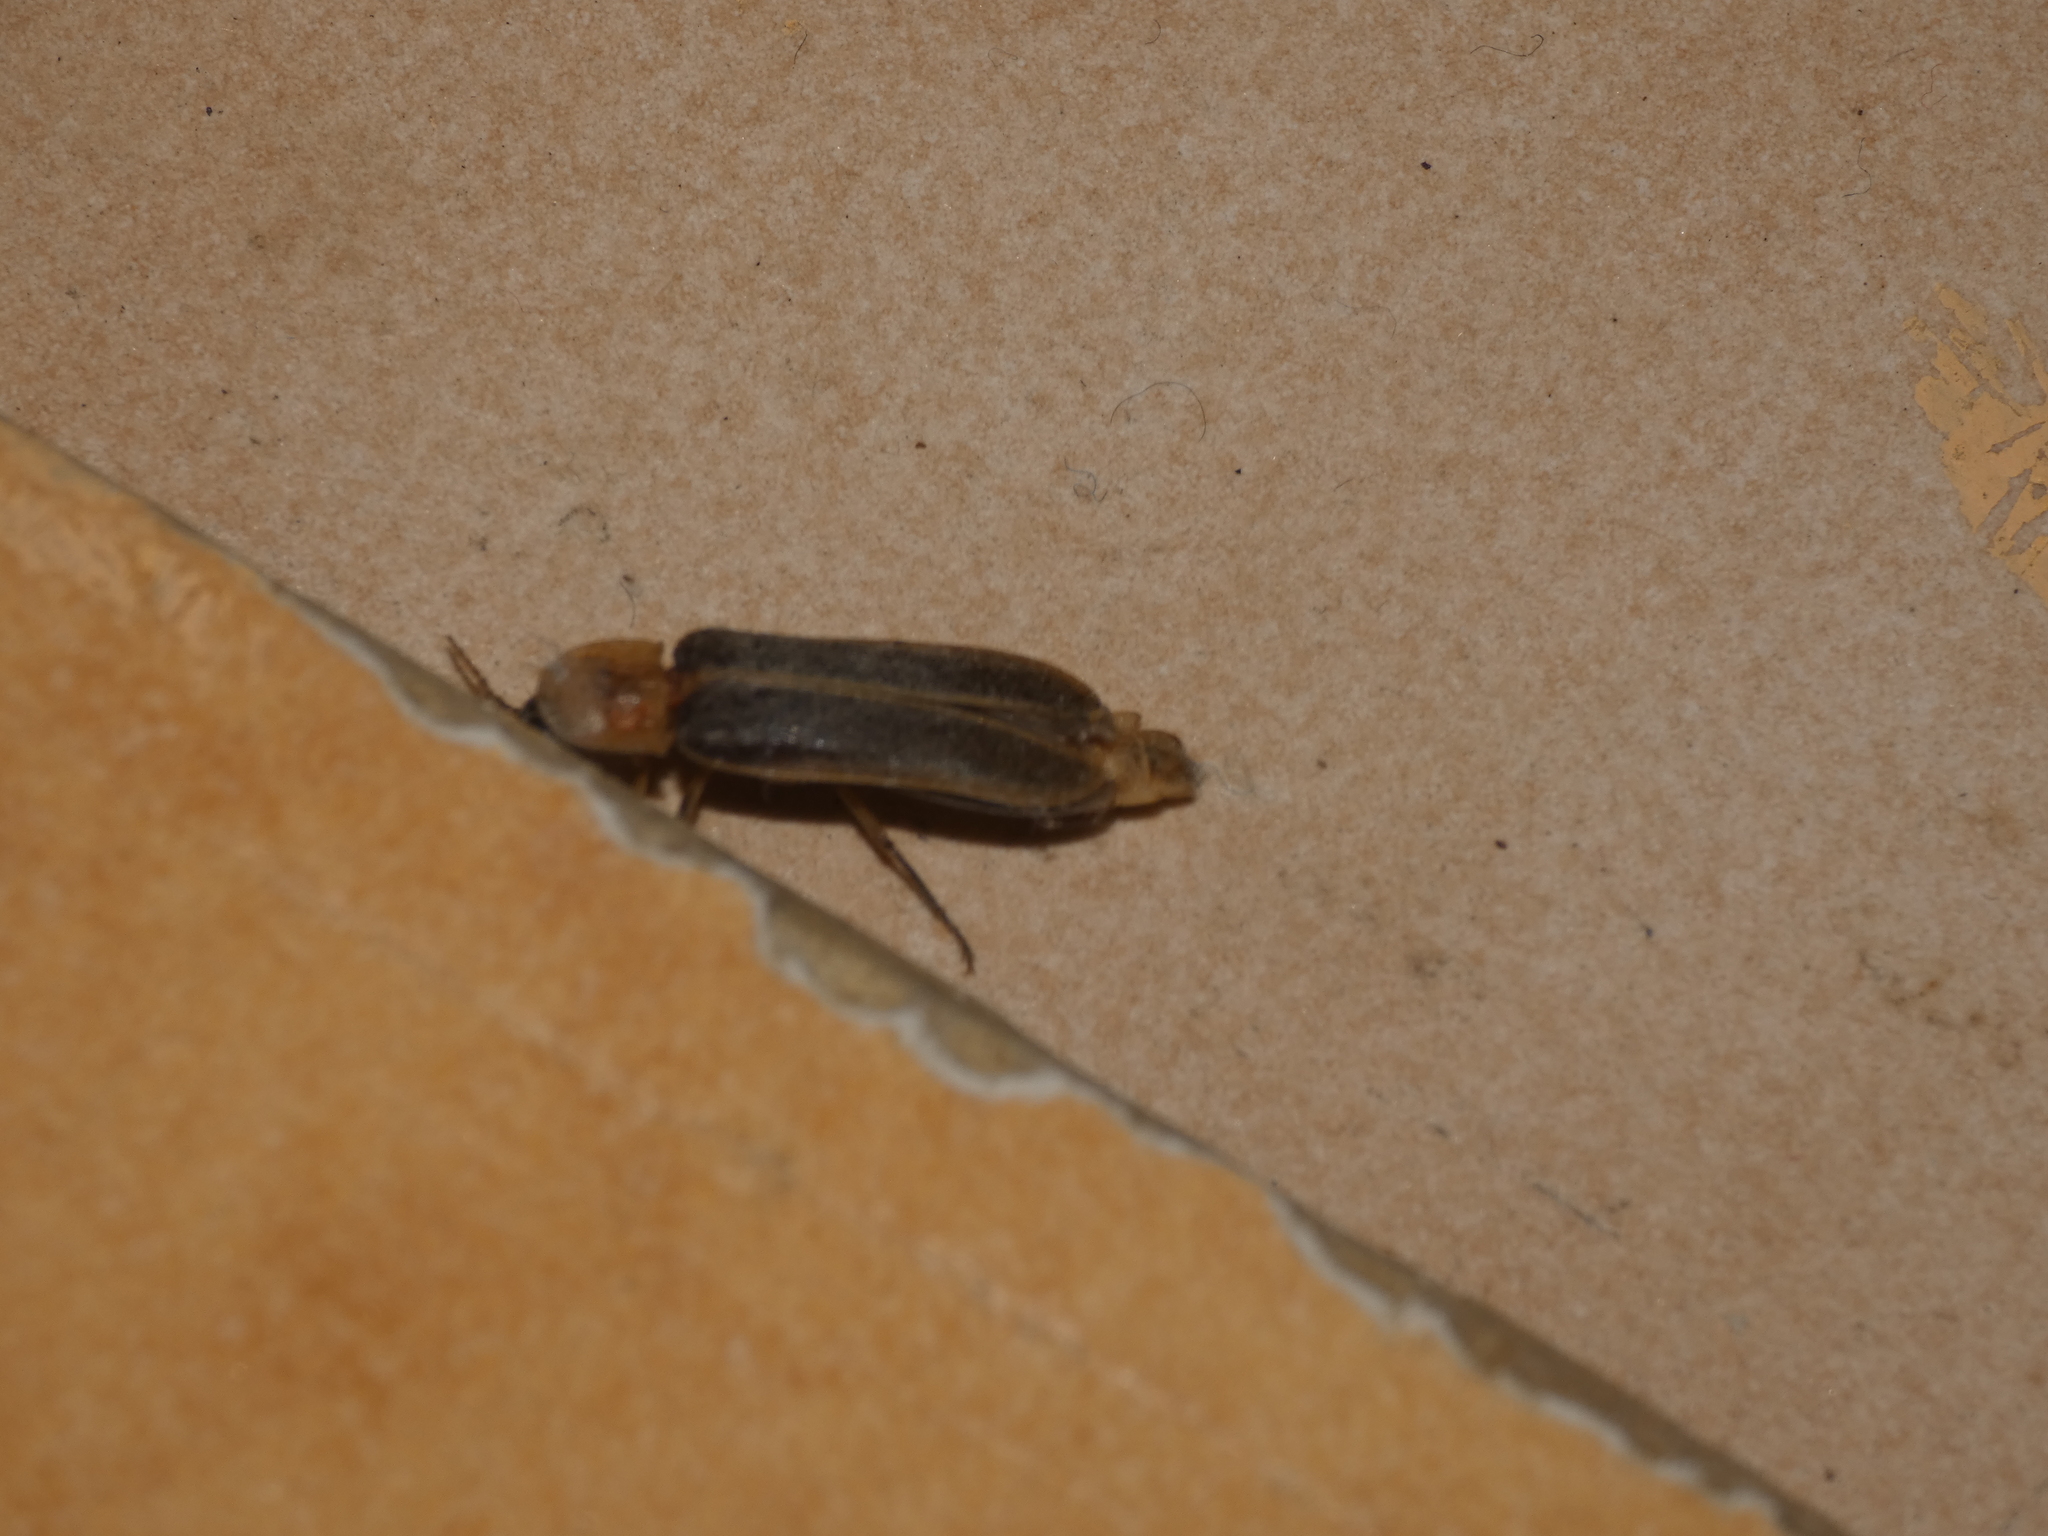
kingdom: Animalia
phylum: Arthropoda
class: Insecta
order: Coleoptera
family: Lampyridae
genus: Nyctophila
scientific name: Nyctophila reichii
